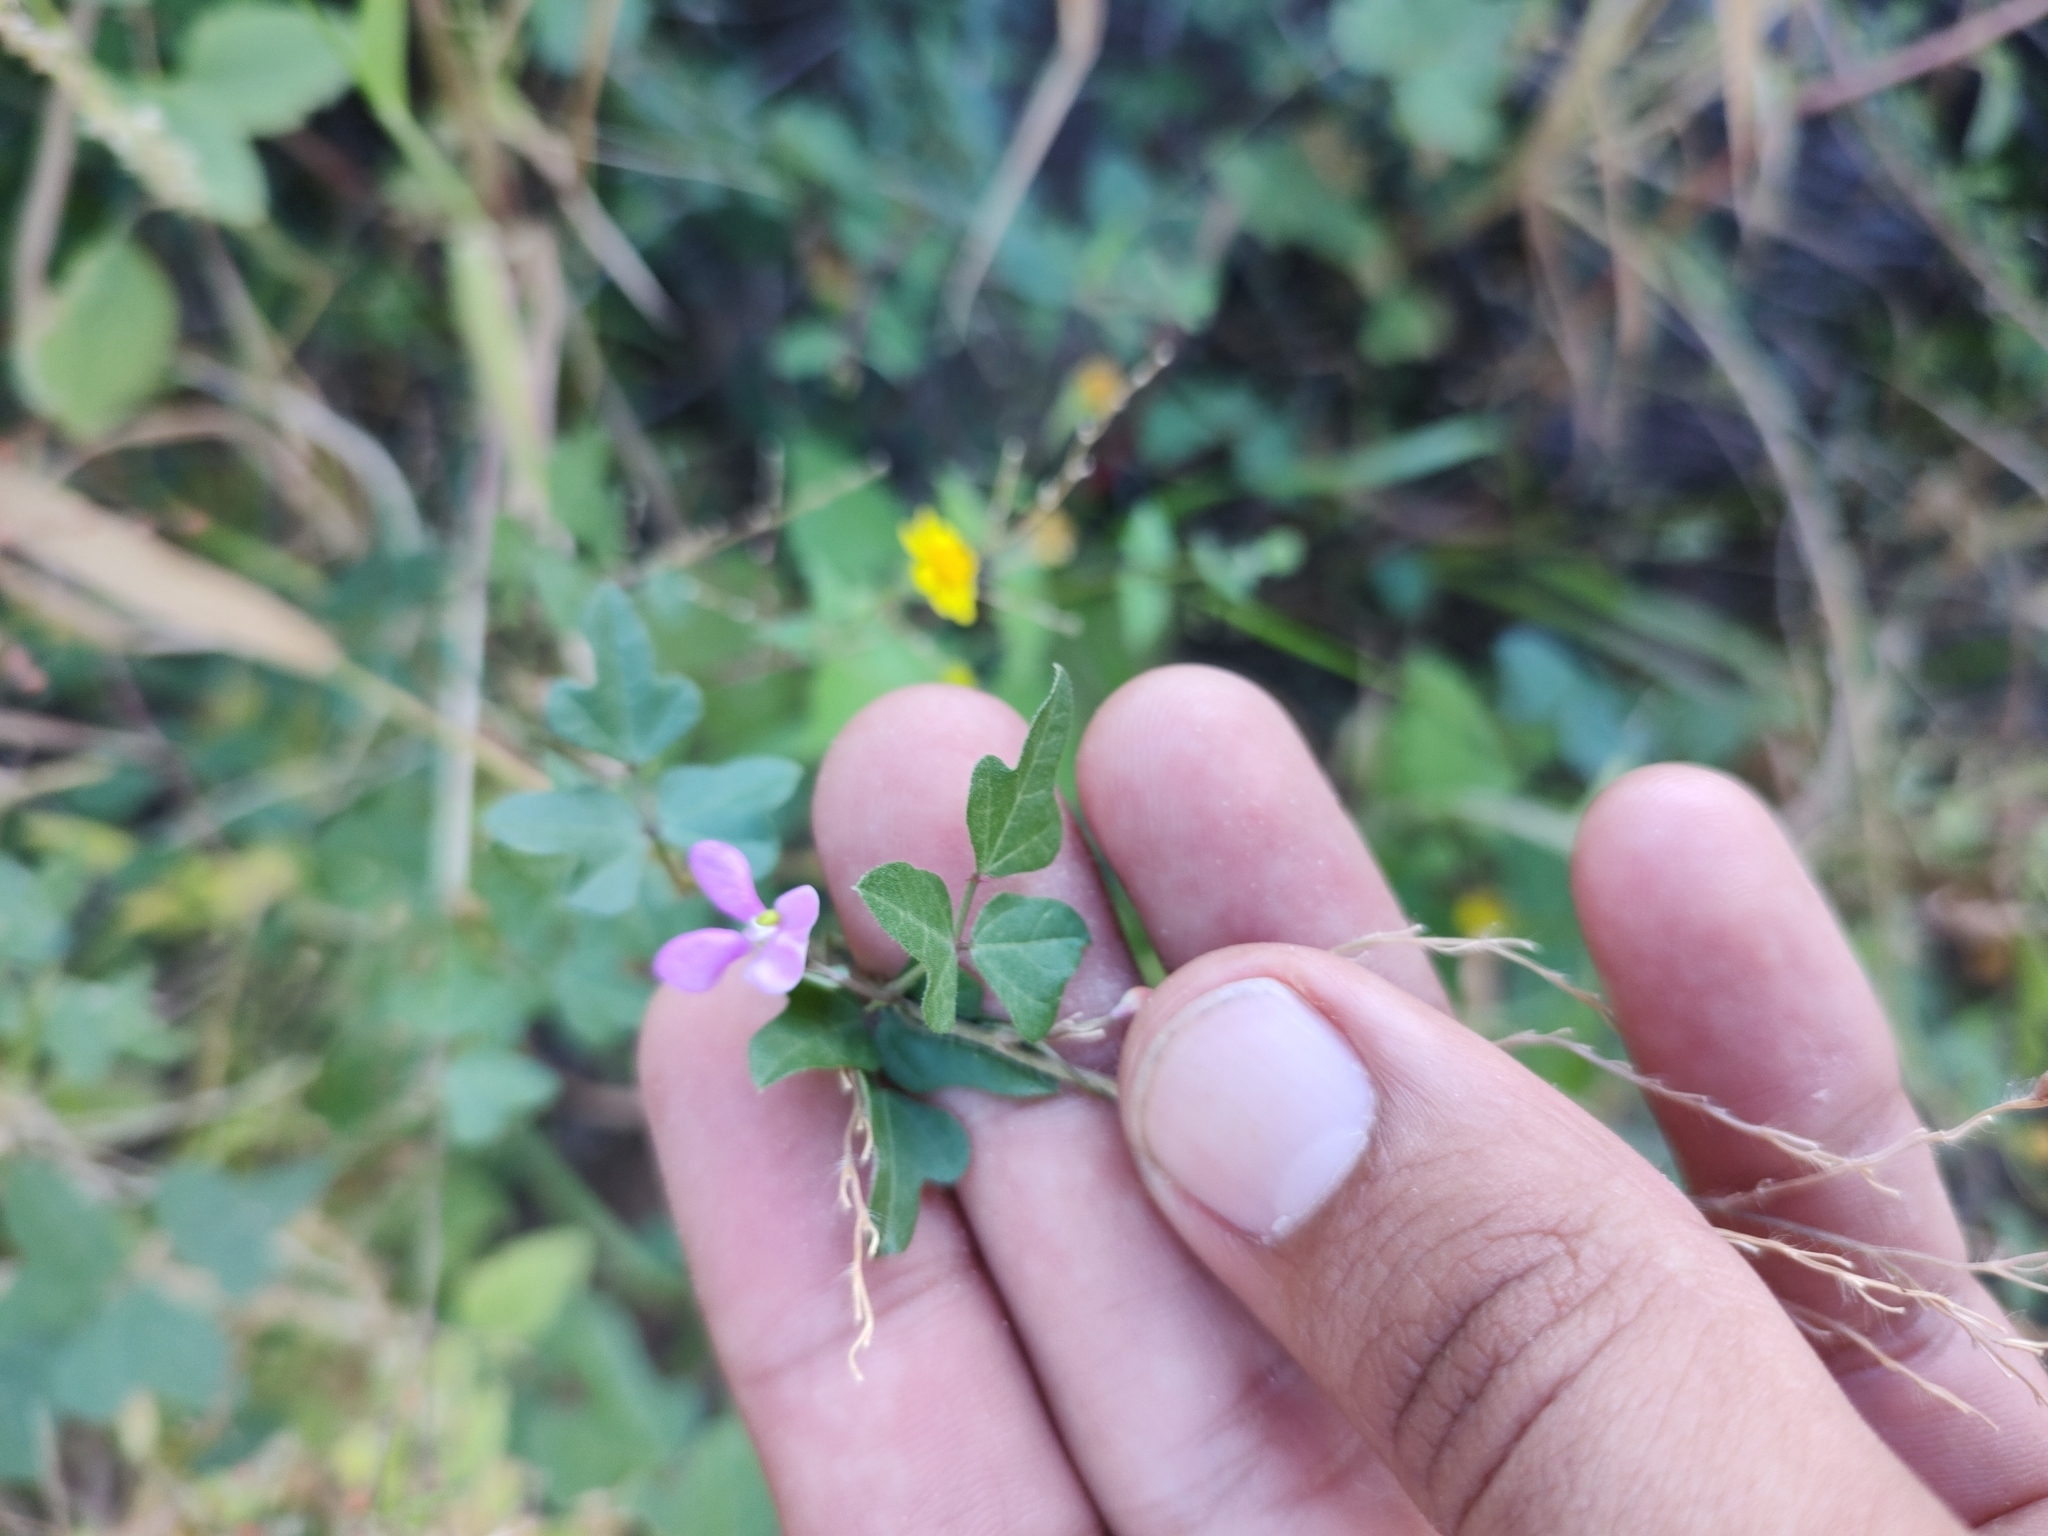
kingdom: Plantae
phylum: Tracheophyta
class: Magnoliopsida
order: Fabales
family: Fabaceae
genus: Phaseolus
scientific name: Phaseolus filiformis
